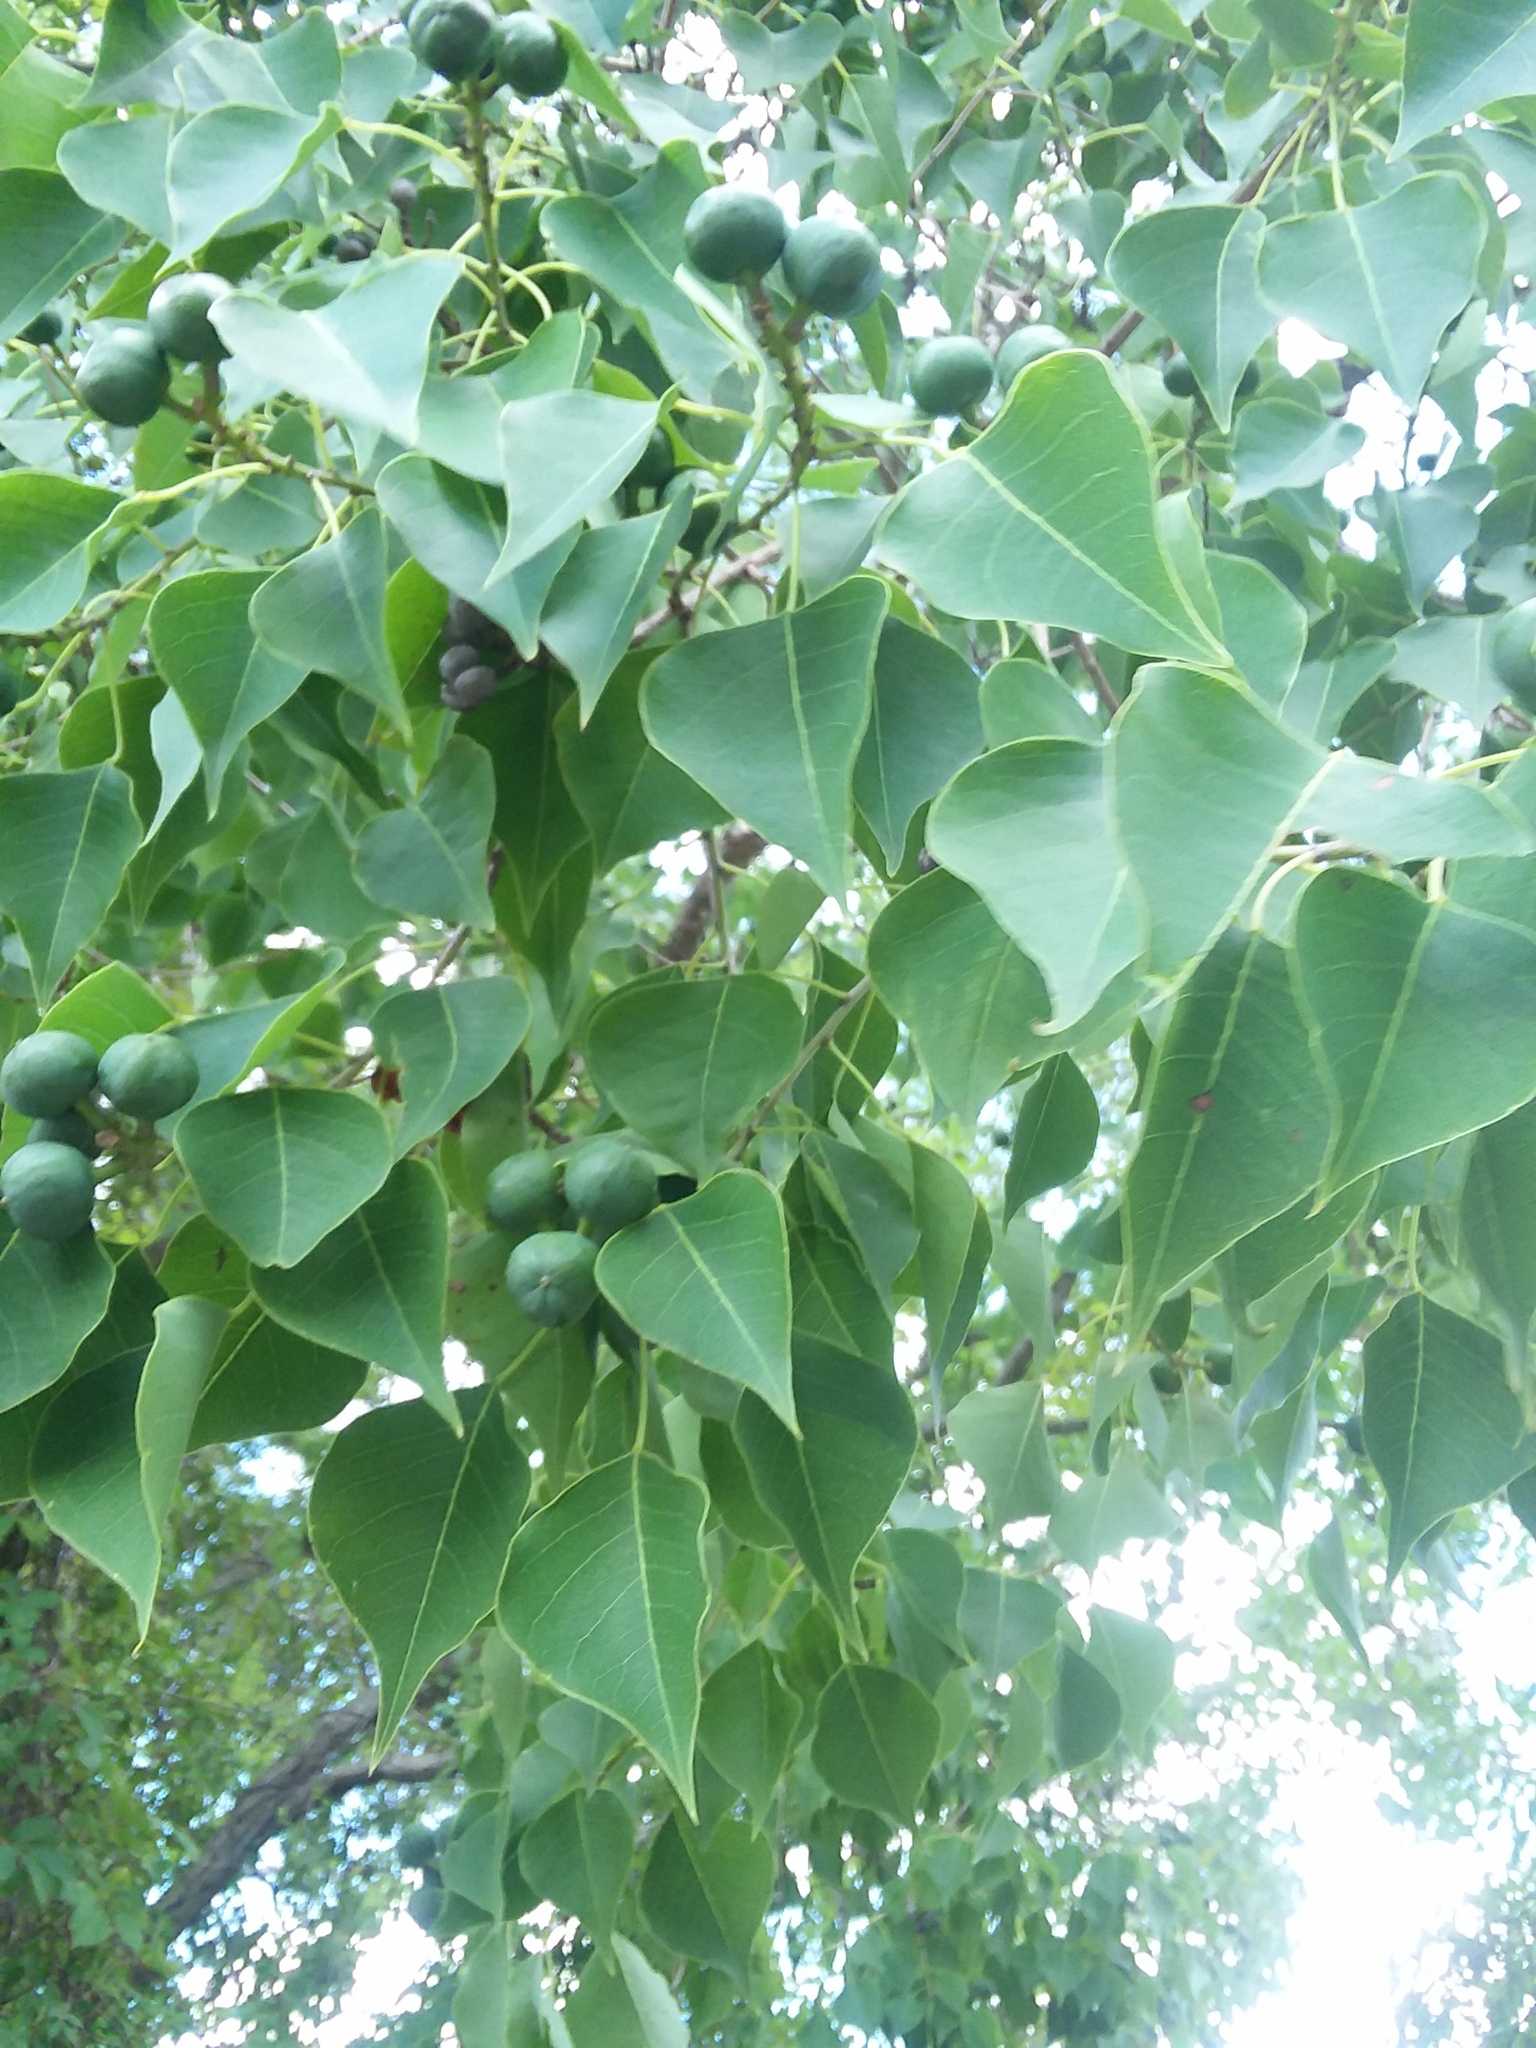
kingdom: Plantae
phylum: Tracheophyta
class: Magnoliopsida
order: Malpighiales
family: Euphorbiaceae
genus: Triadica
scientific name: Triadica sebifera
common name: Chinese tallow
